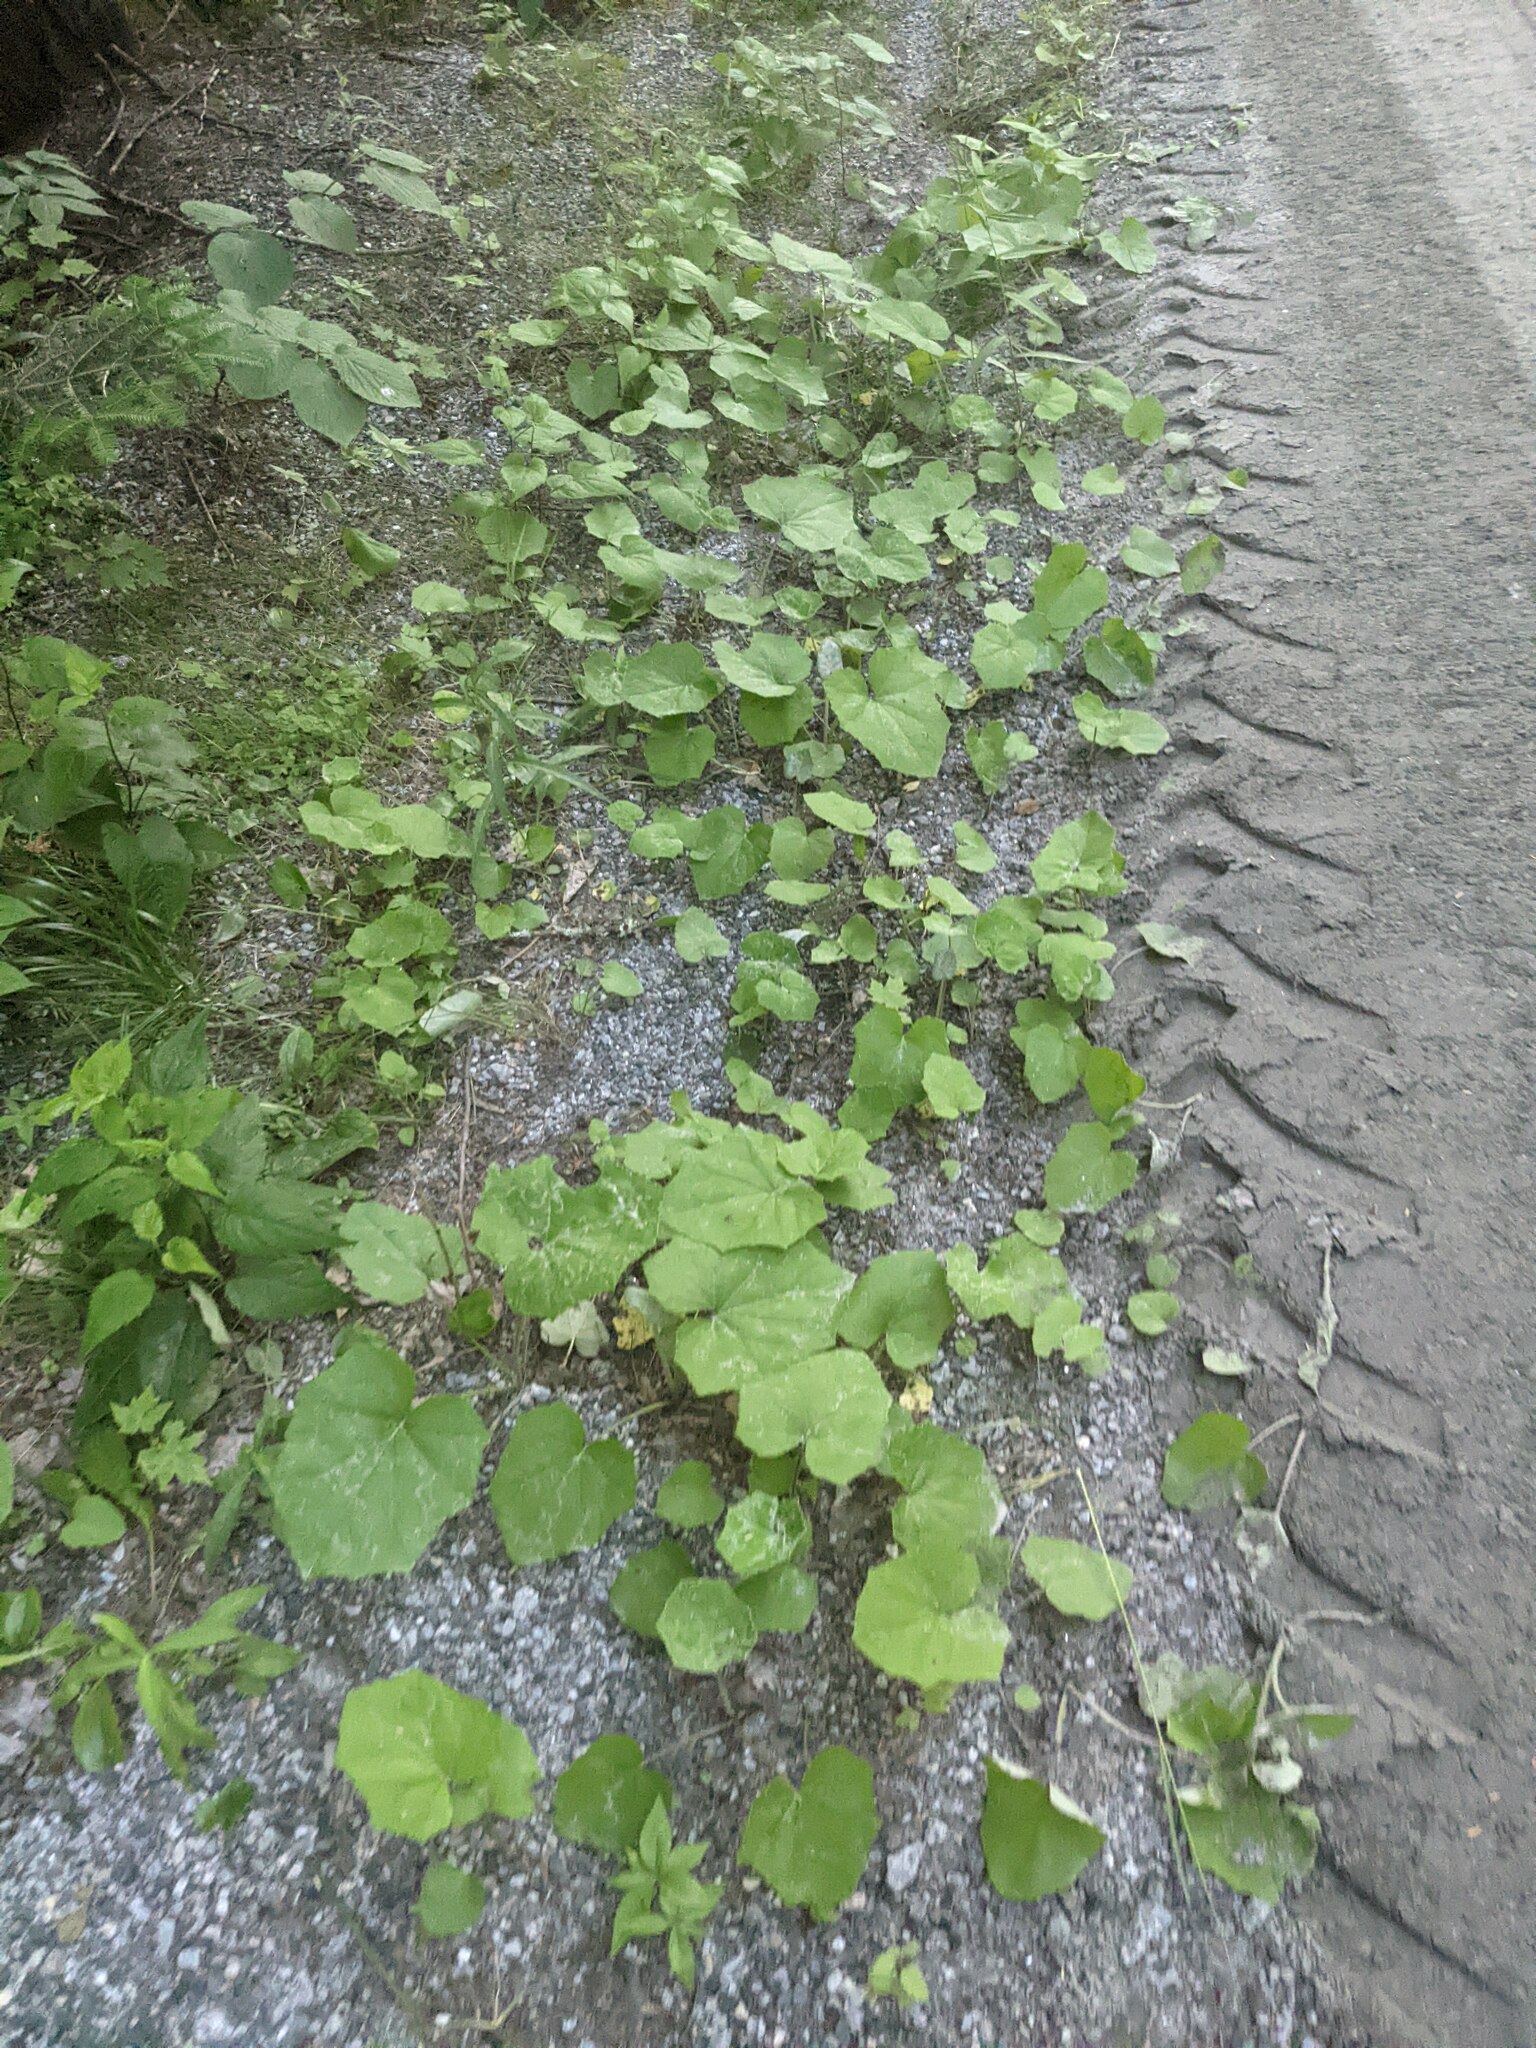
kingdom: Plantae
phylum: Tracheophyta
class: Magnoliopsida
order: Asterales
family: Asteraceae
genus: Tussilago
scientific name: Tussilago farfara
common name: Coltsfoot
